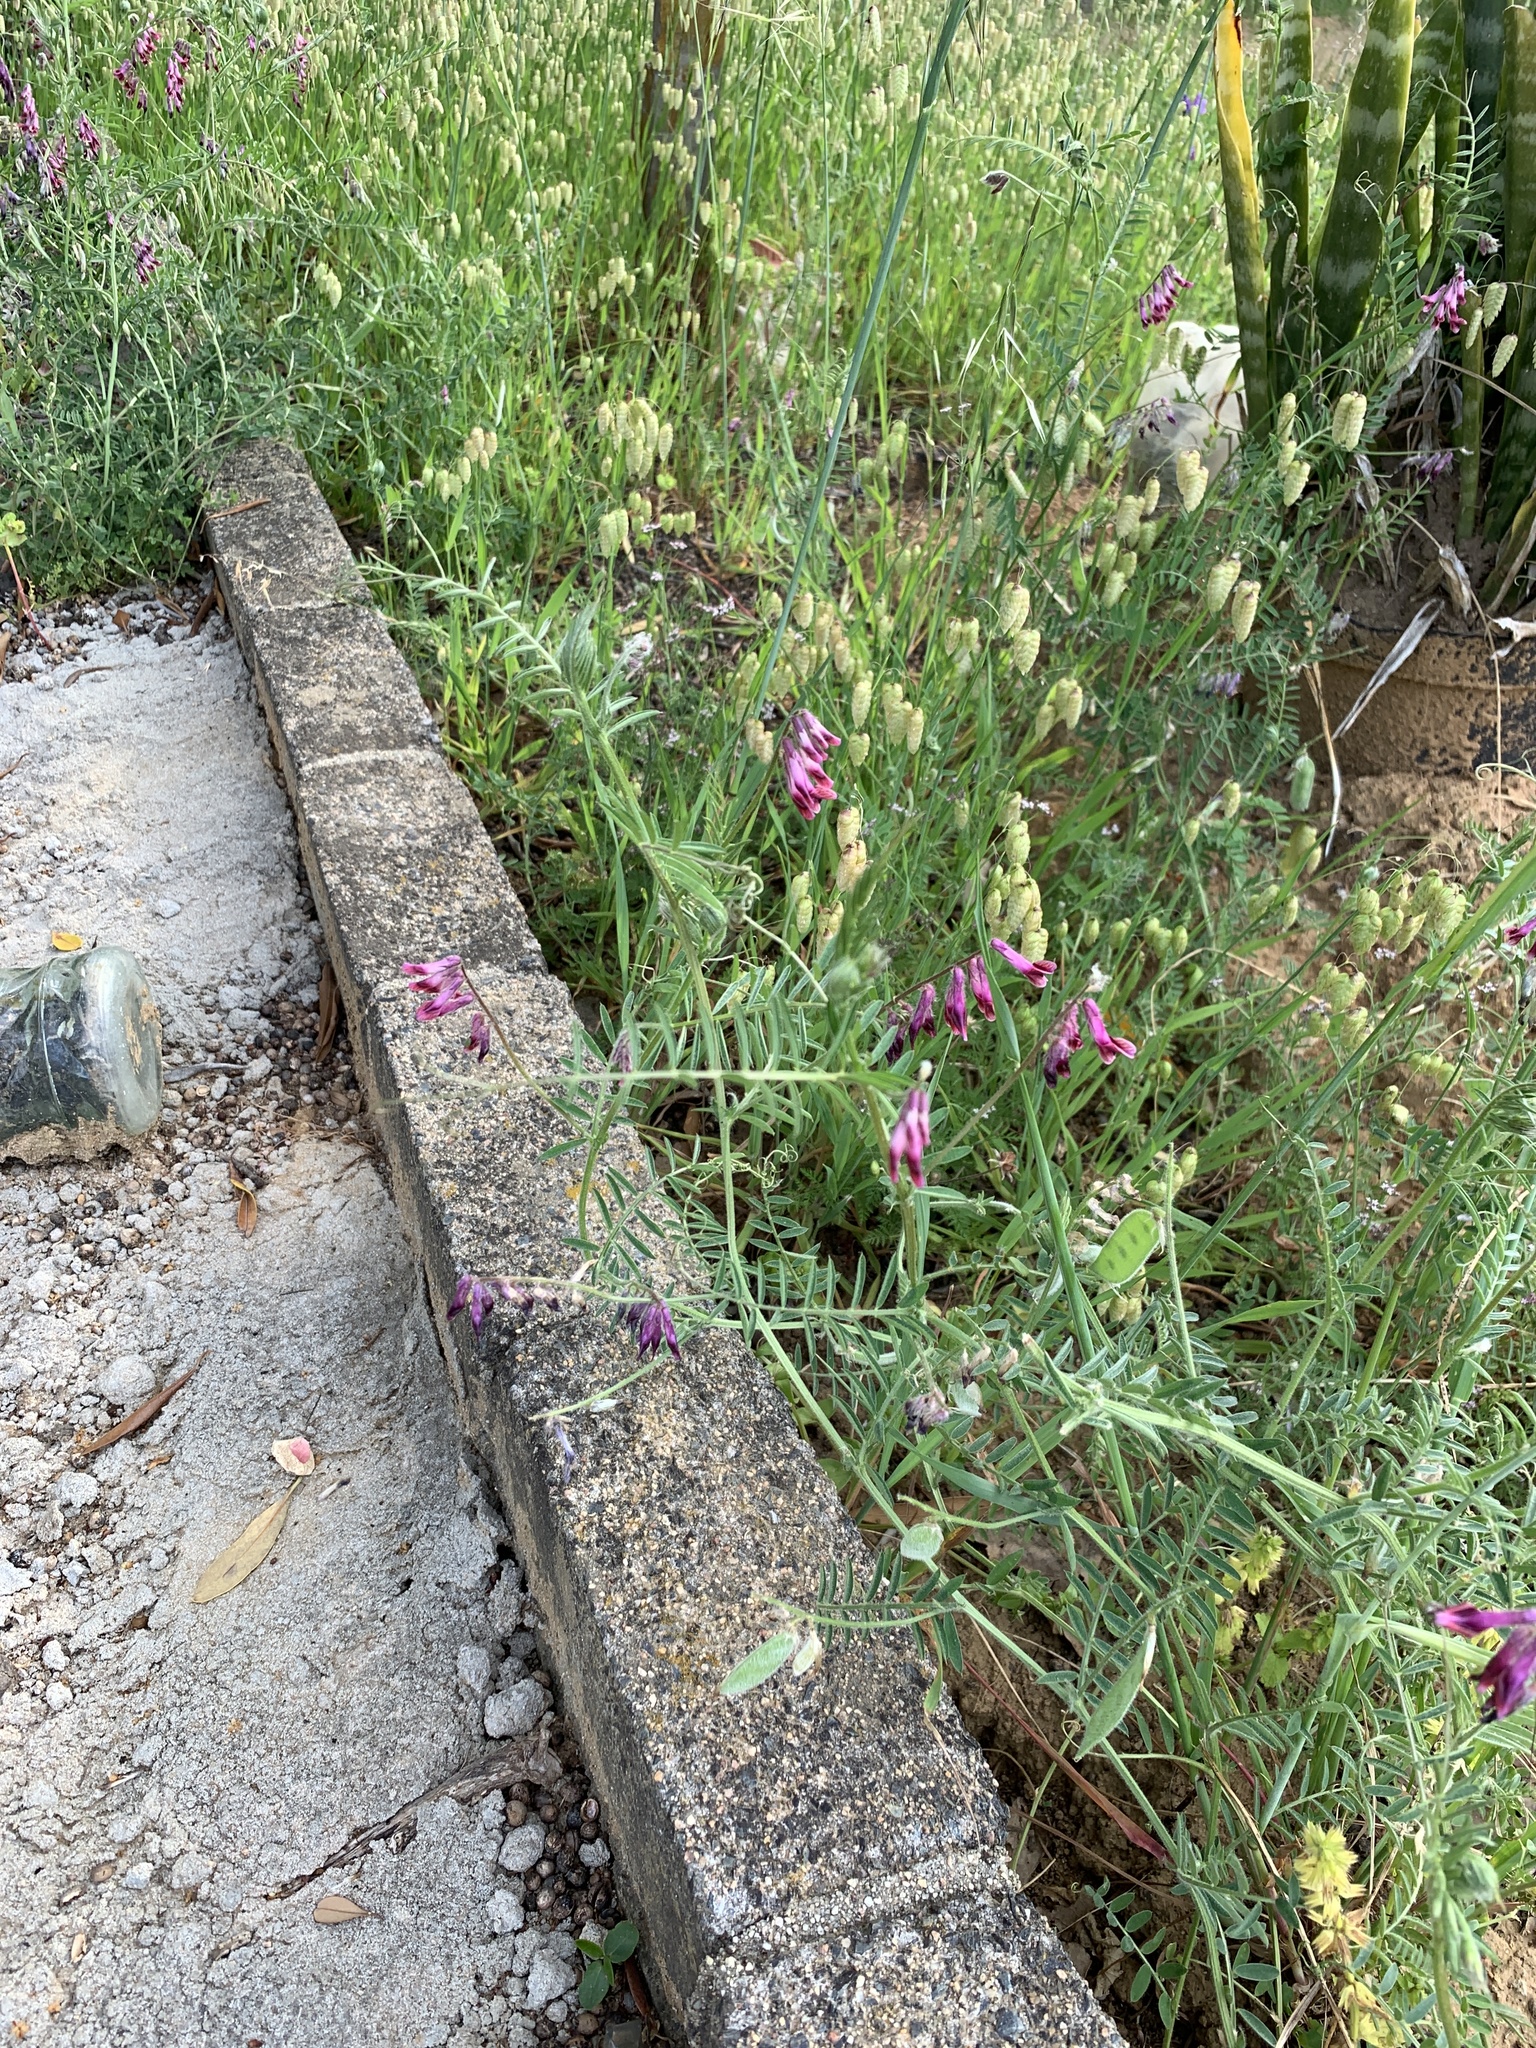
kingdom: Plantae
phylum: Tracheophyta
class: Magnoliopsida
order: Fabales
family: Fabaceae
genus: Vicia
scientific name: Vicia benghalensis
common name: Purple vetch
